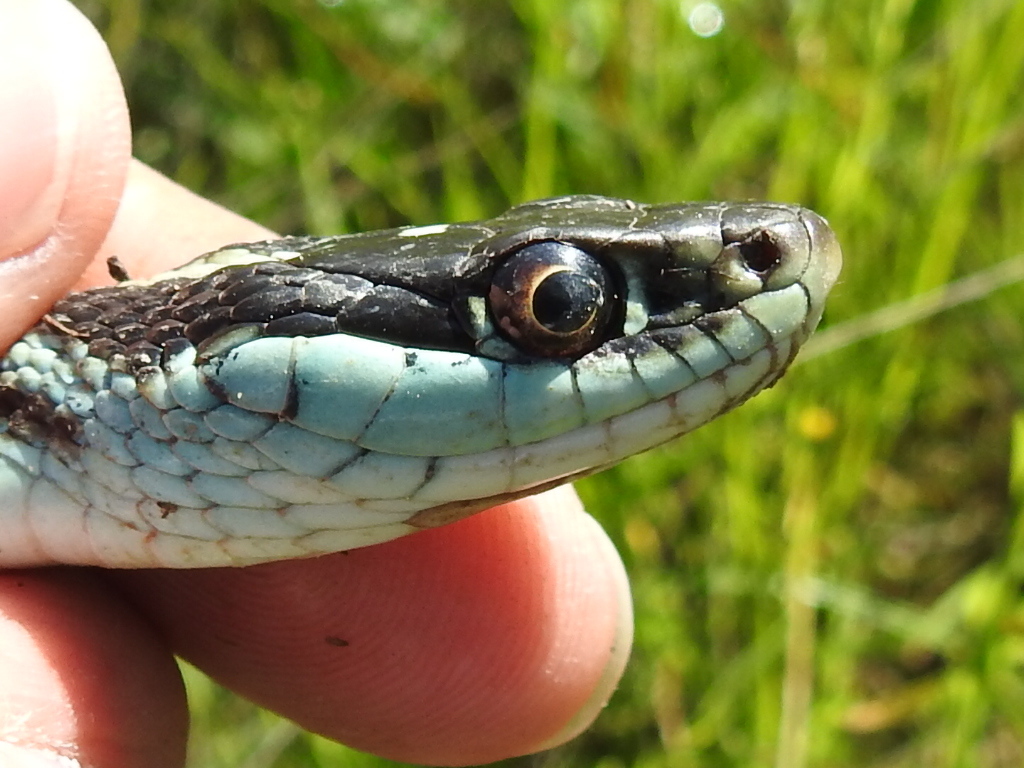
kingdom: Animalia
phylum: Chordata
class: Squamata
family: Colubridae
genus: Thamnophis
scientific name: Thamnophis proximus
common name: Western ribbon snake
